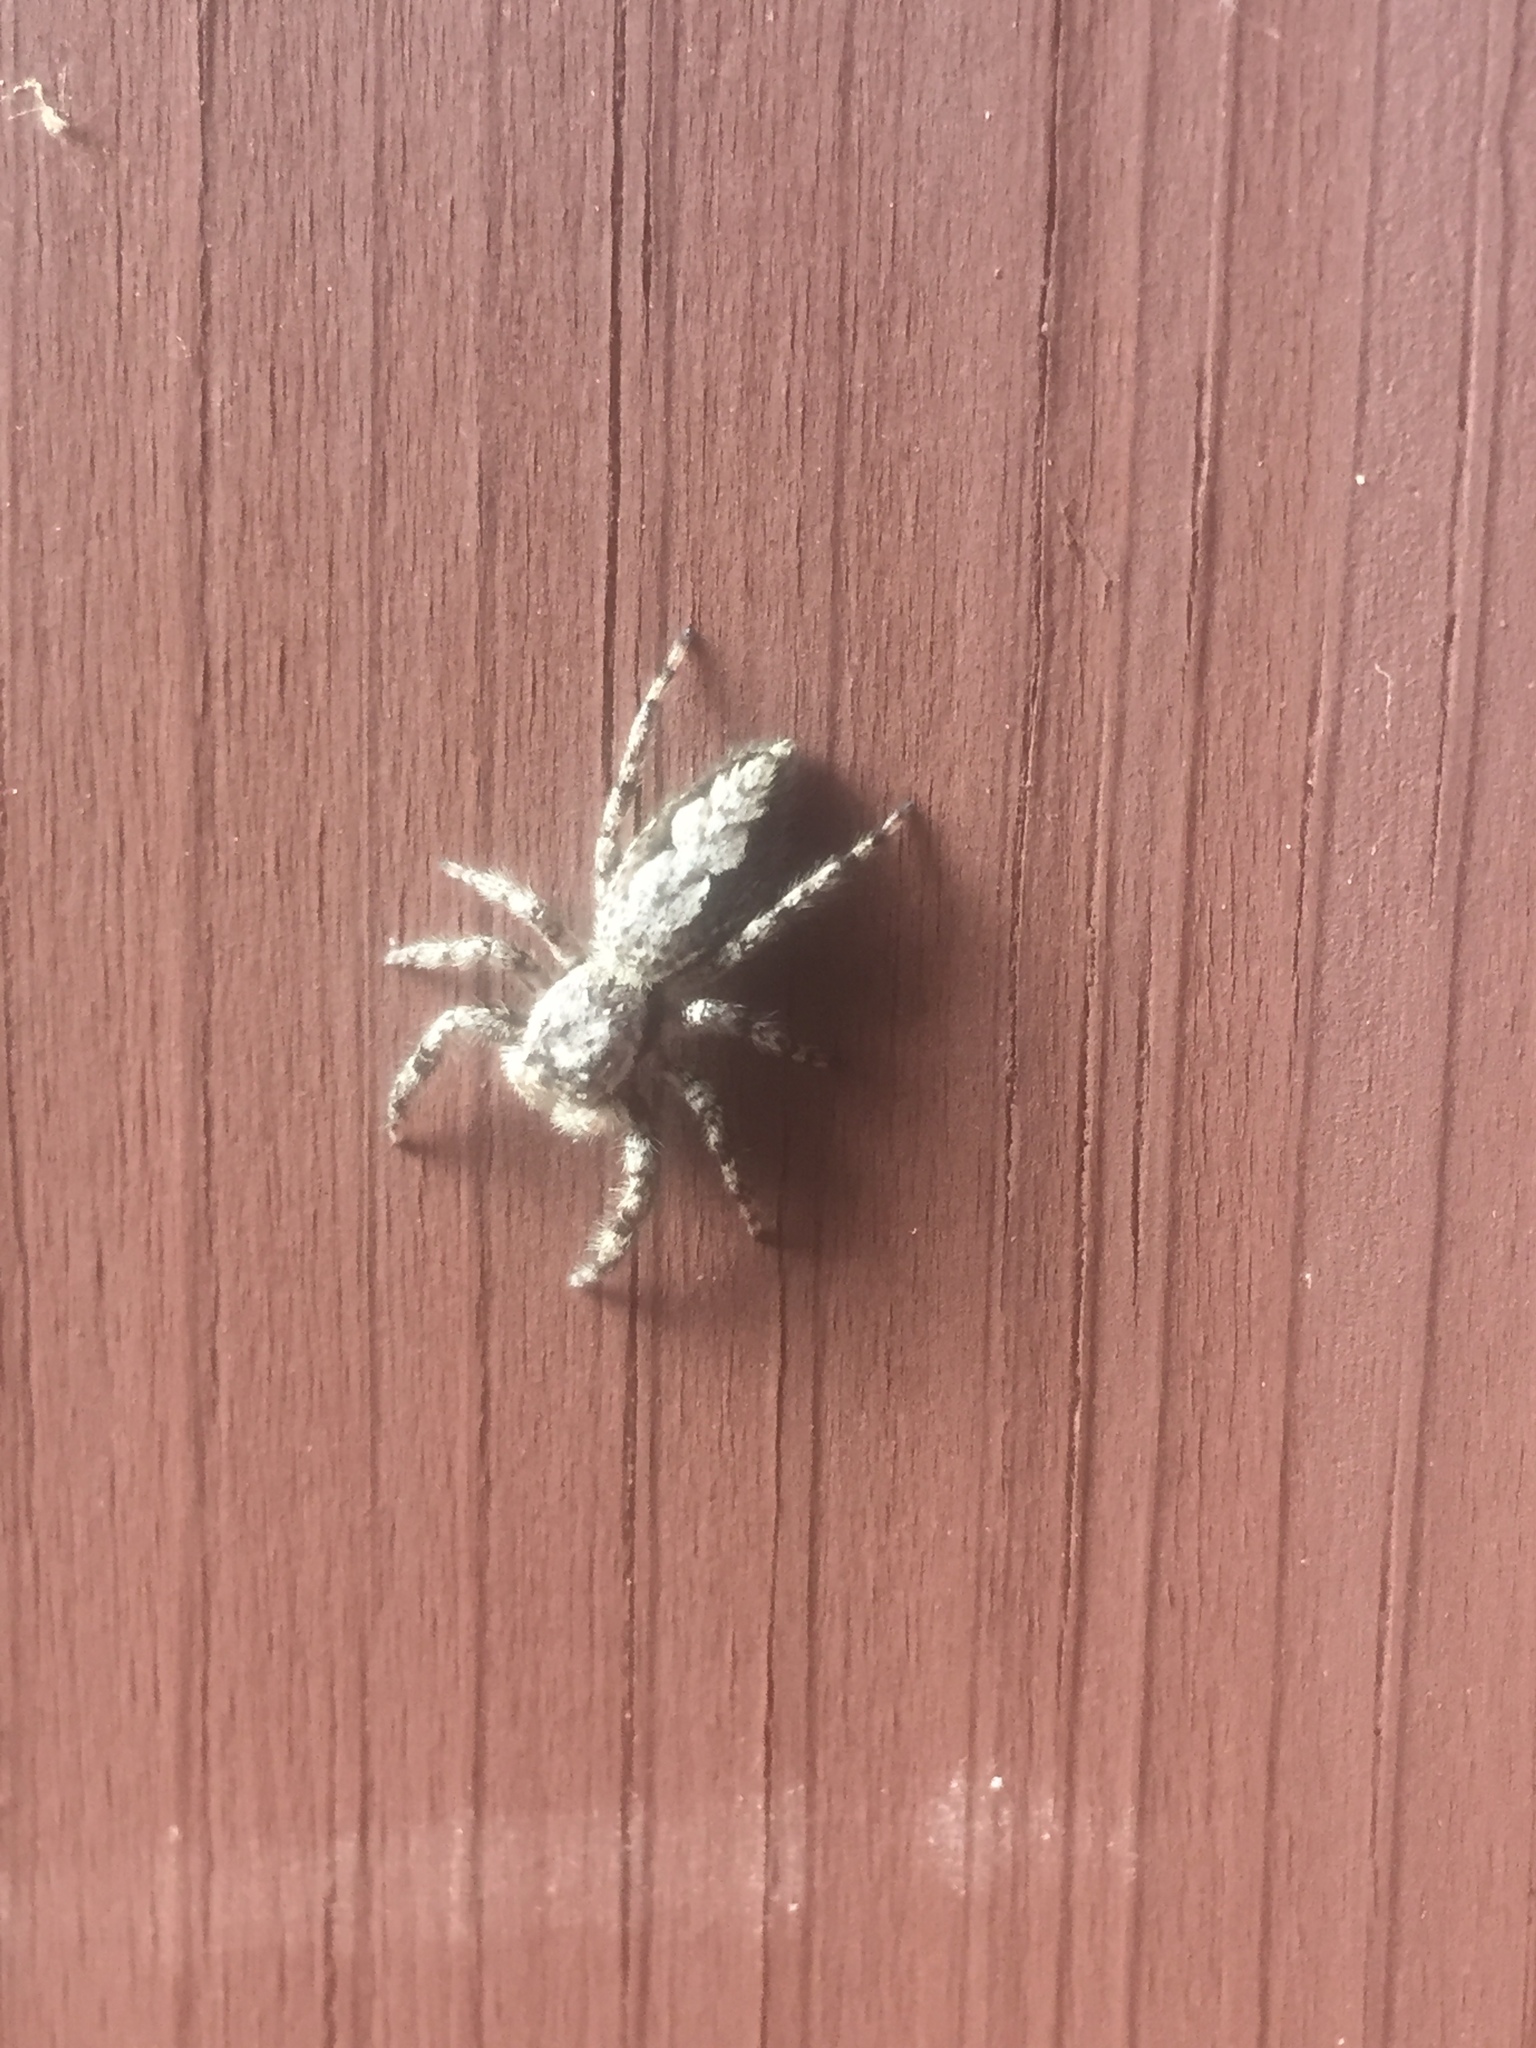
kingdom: Animalia
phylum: Arthropoda
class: Arachnida
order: Araneae
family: Salticidae
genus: Platycryptus
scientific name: Platycryptus undatus
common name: Tan jumping spider
